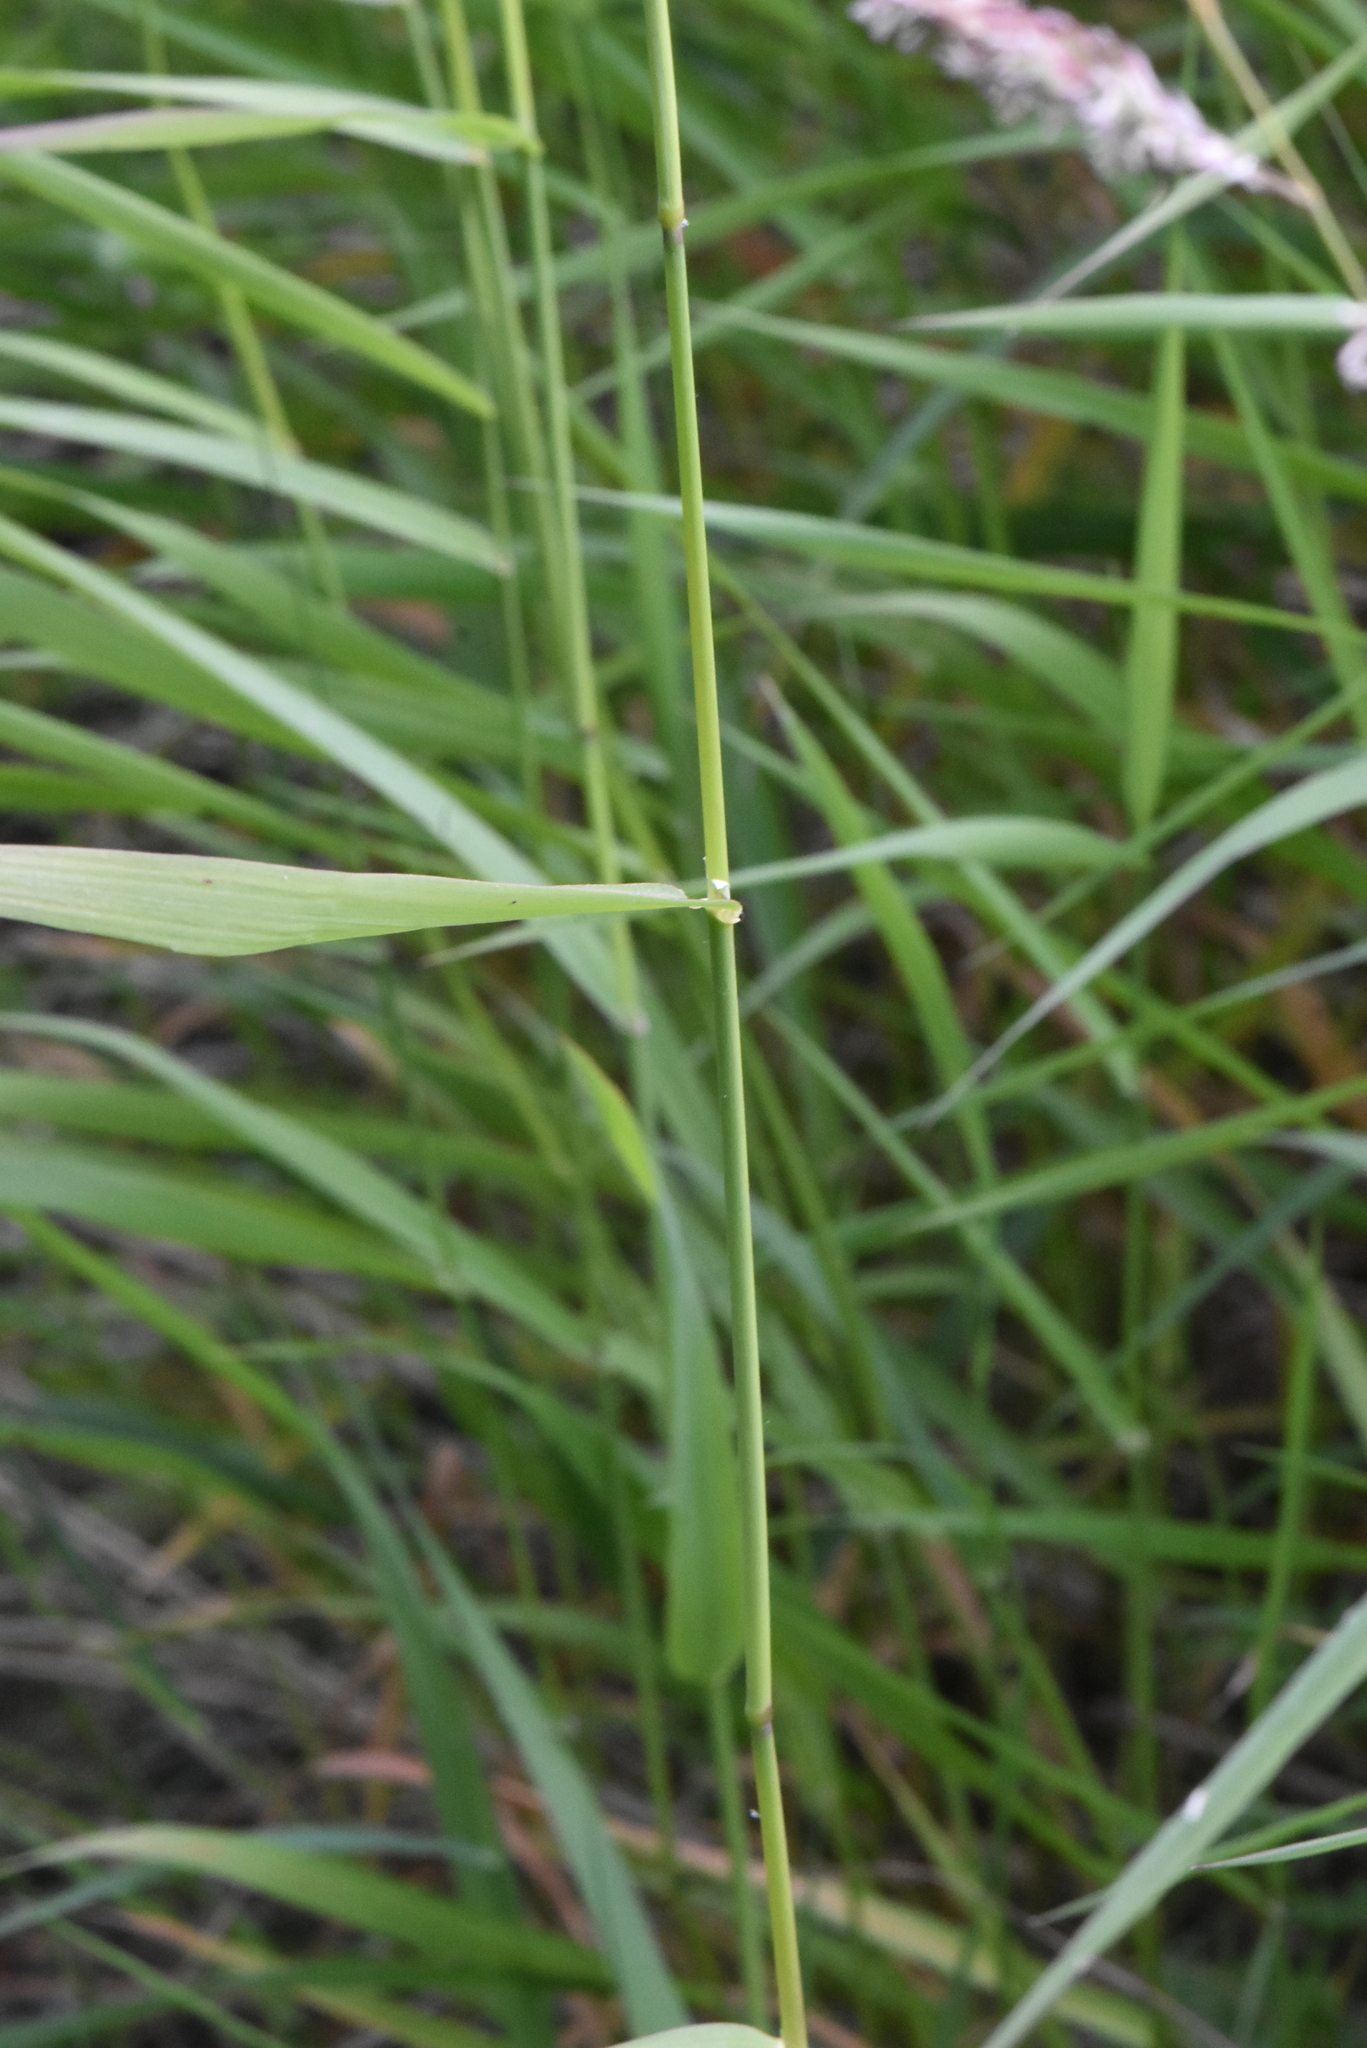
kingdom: Plantae
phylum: Tracheophyta
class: Liliopsida
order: Poales
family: Poaceae
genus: Phalaris
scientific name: Phalaris arundinacea
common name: Reed canary-grass
